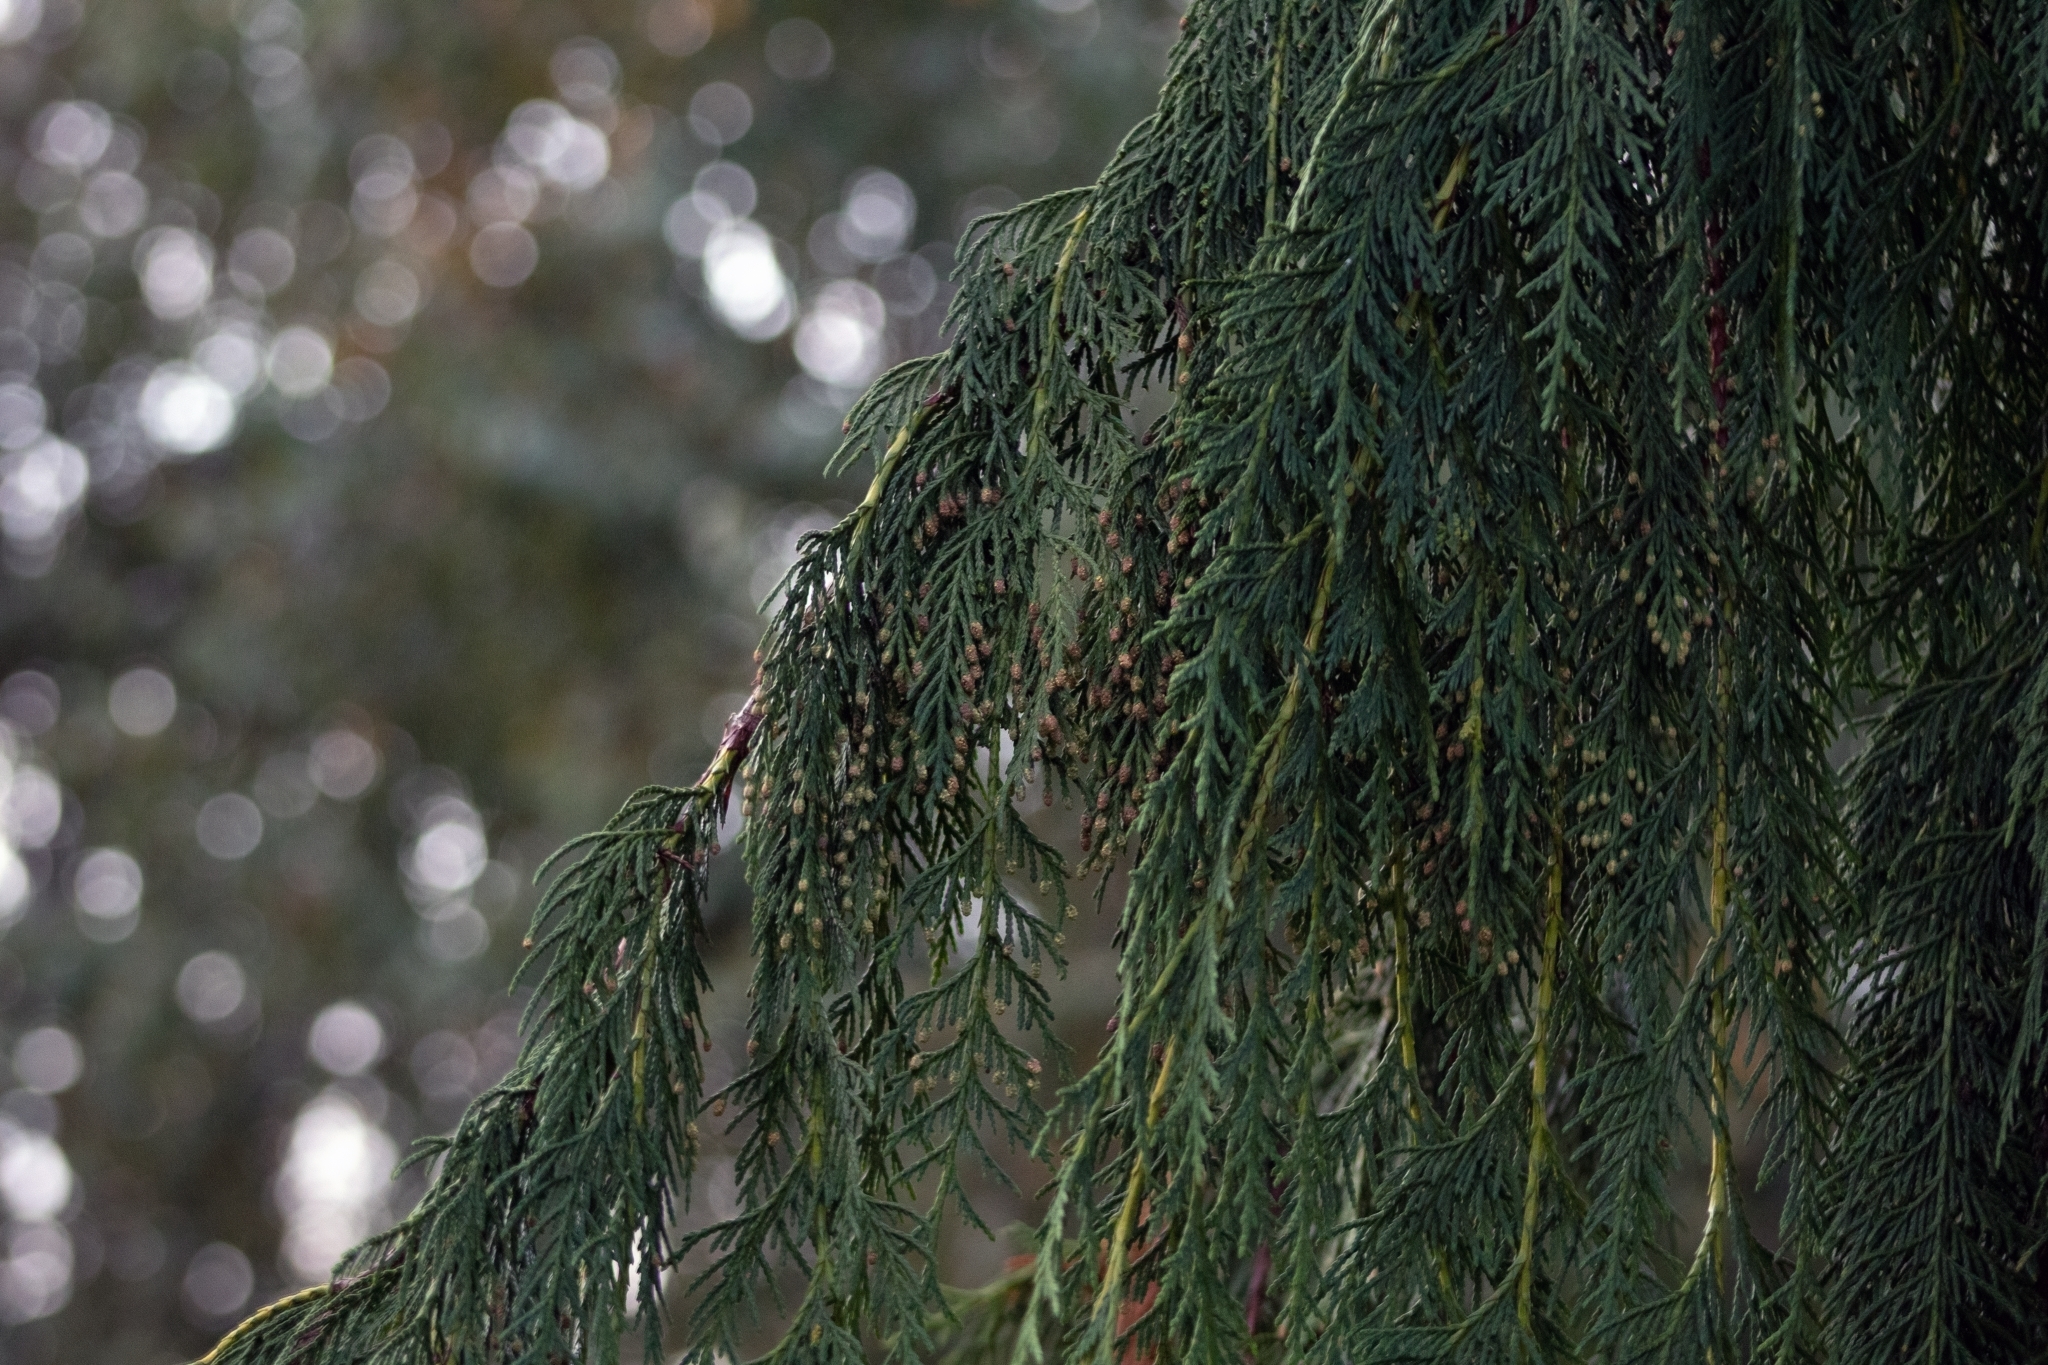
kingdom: Plantae
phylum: Tracheophyta
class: Pinopsida
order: Pinales
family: Cupressaceae
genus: Xanthocyparis
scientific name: Xanthocyparis nootkatensis
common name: Nootka cypress
